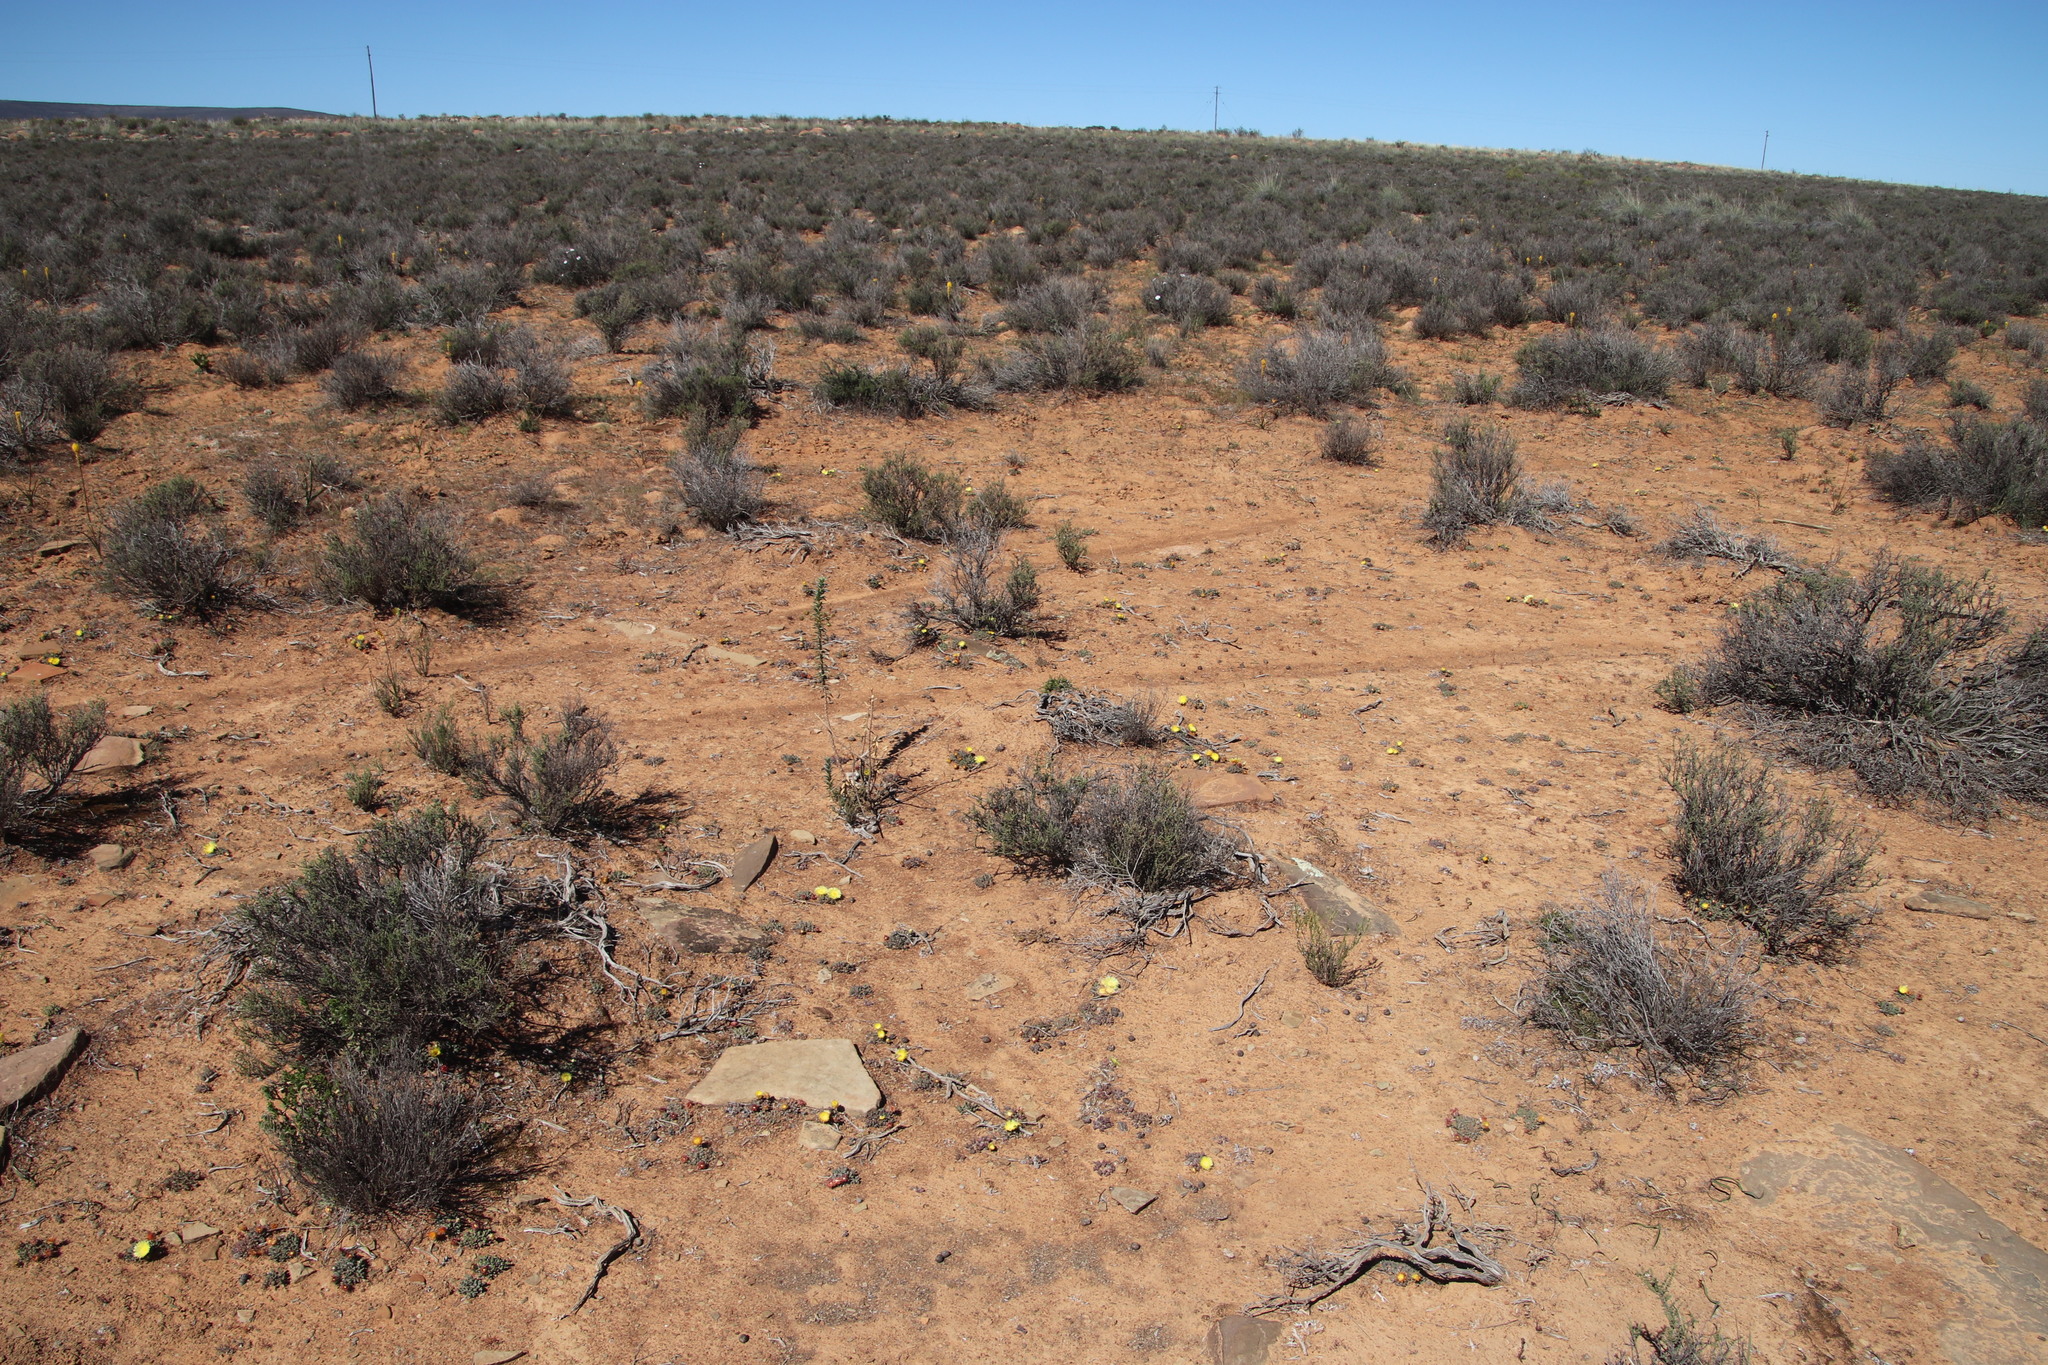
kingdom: Plantae
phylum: Tracheophyta
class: Magnoliopsida
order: Caryophyllales
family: Aizoaceae
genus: Cheiridopsis
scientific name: Cheiridopsis namaquensis
